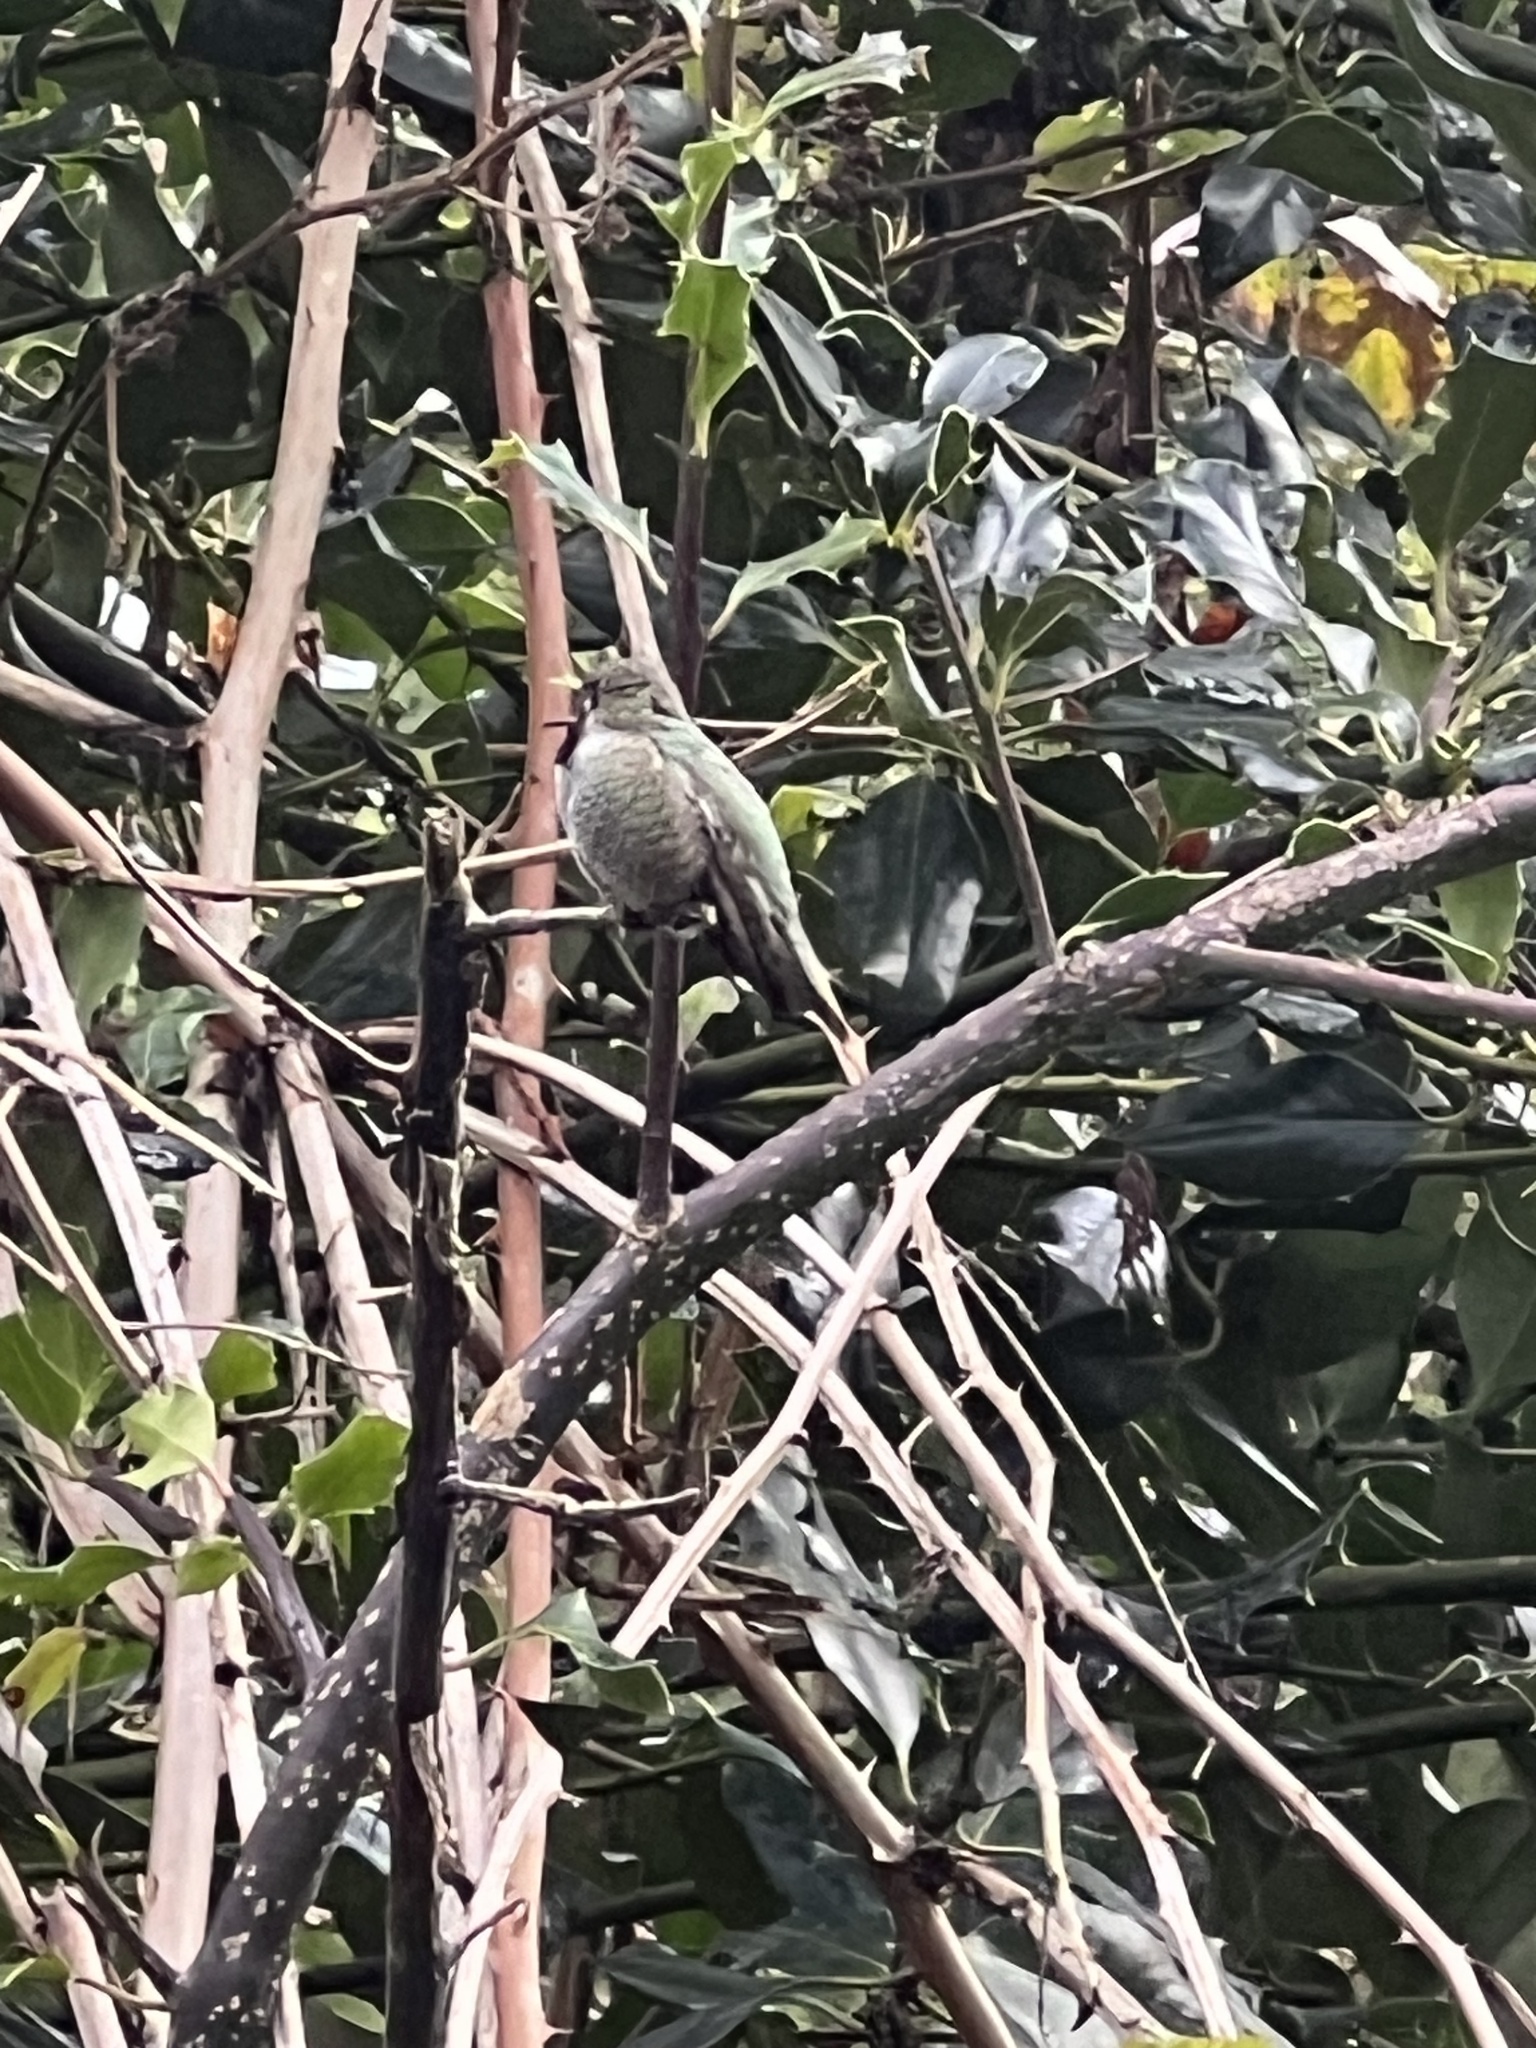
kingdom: Animalia
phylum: Chordata
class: Aves
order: Apodiformes
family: Trochilidae
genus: Calypte
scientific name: Calypte anna
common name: Anna's hummingbird
